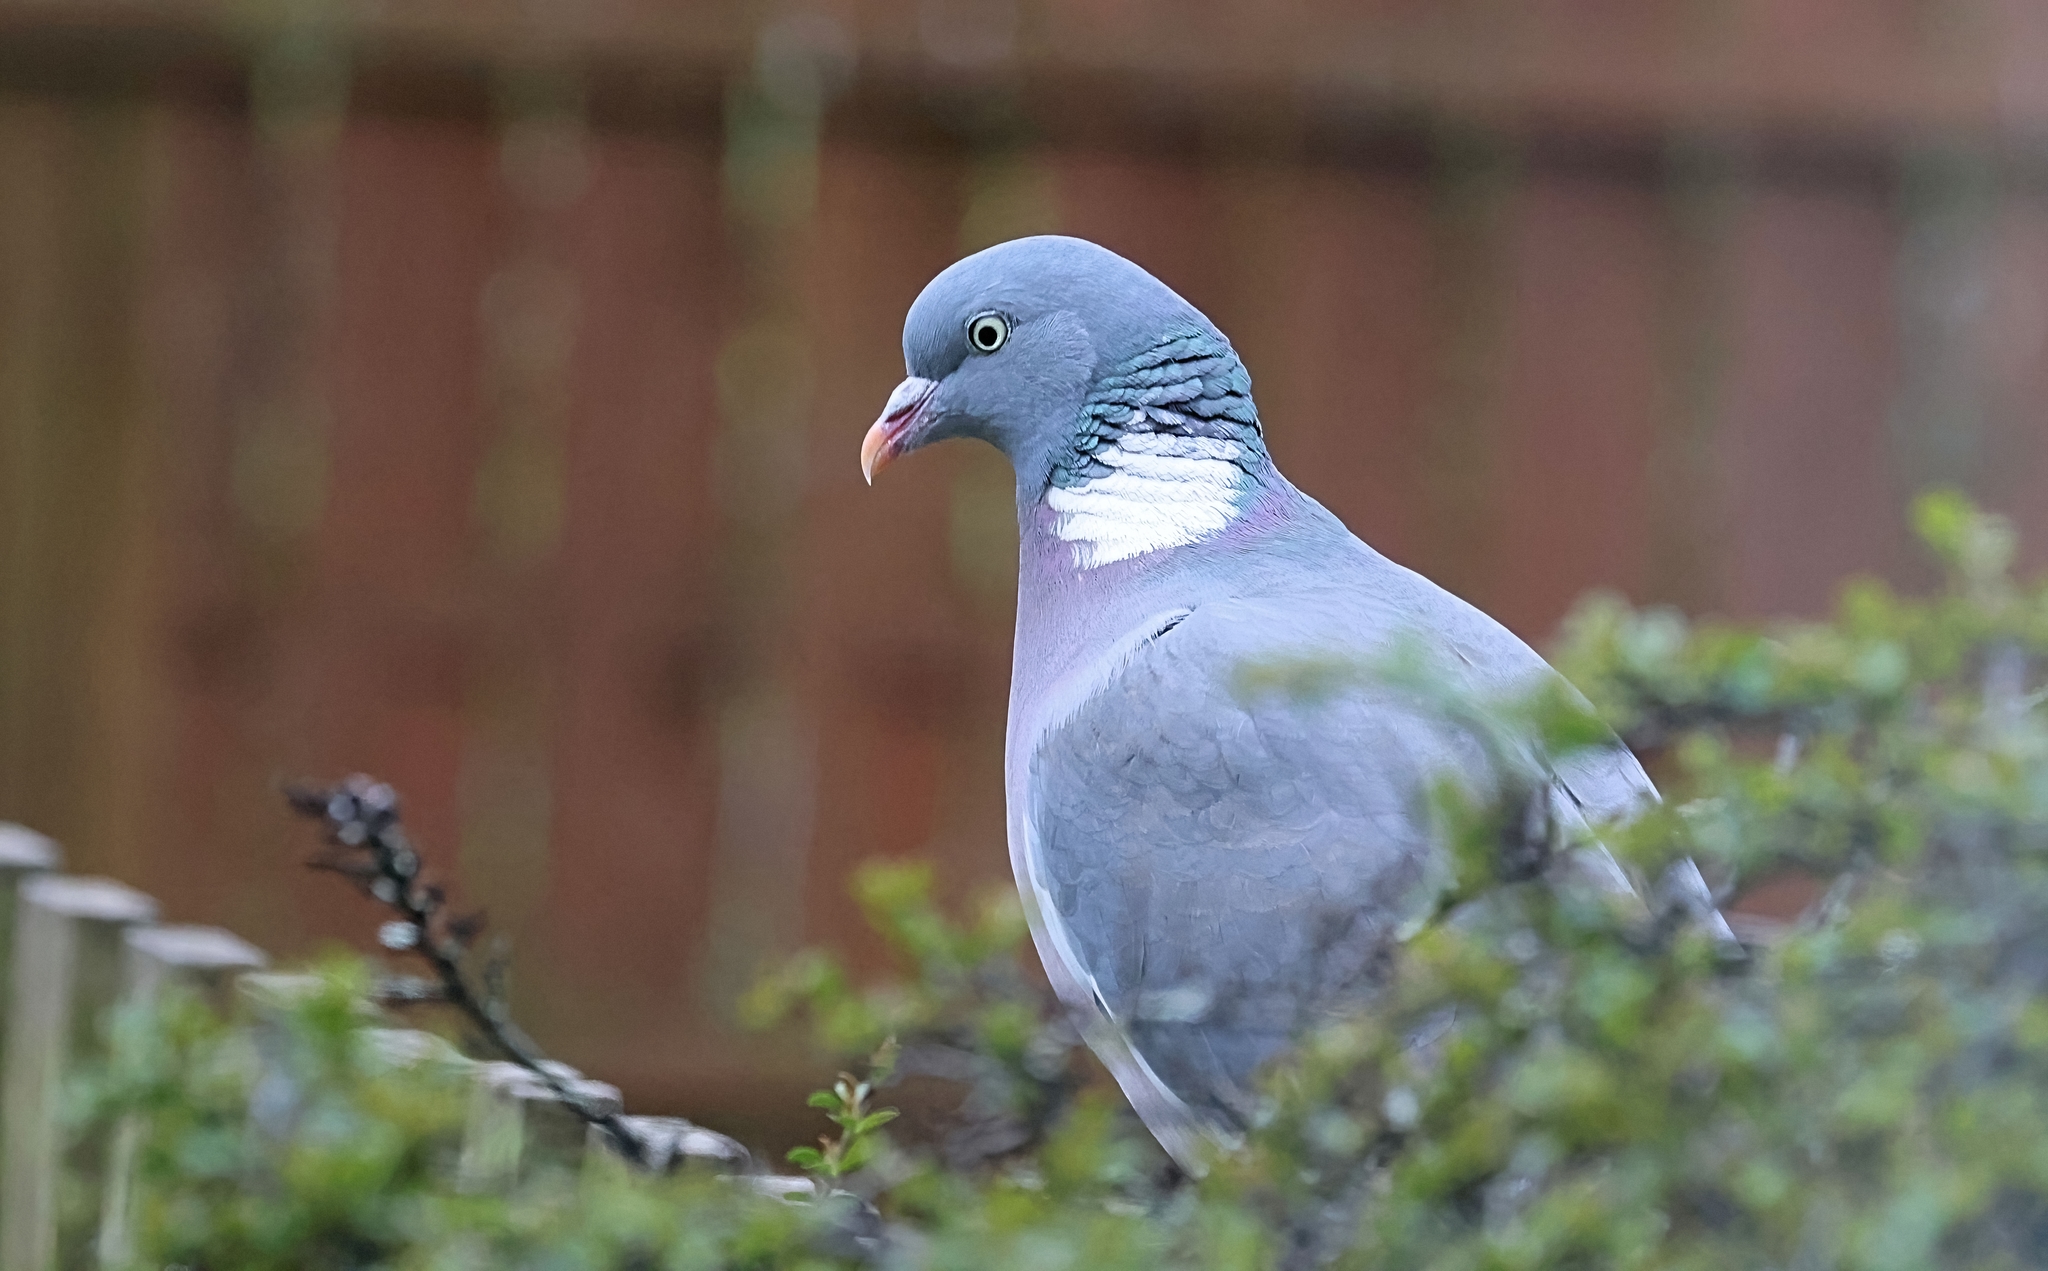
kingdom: Animalia
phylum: Chordata
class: Aves
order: Columbiformes
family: Columbidae
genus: Columba
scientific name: Columba palumbus
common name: Common wood pigeon
